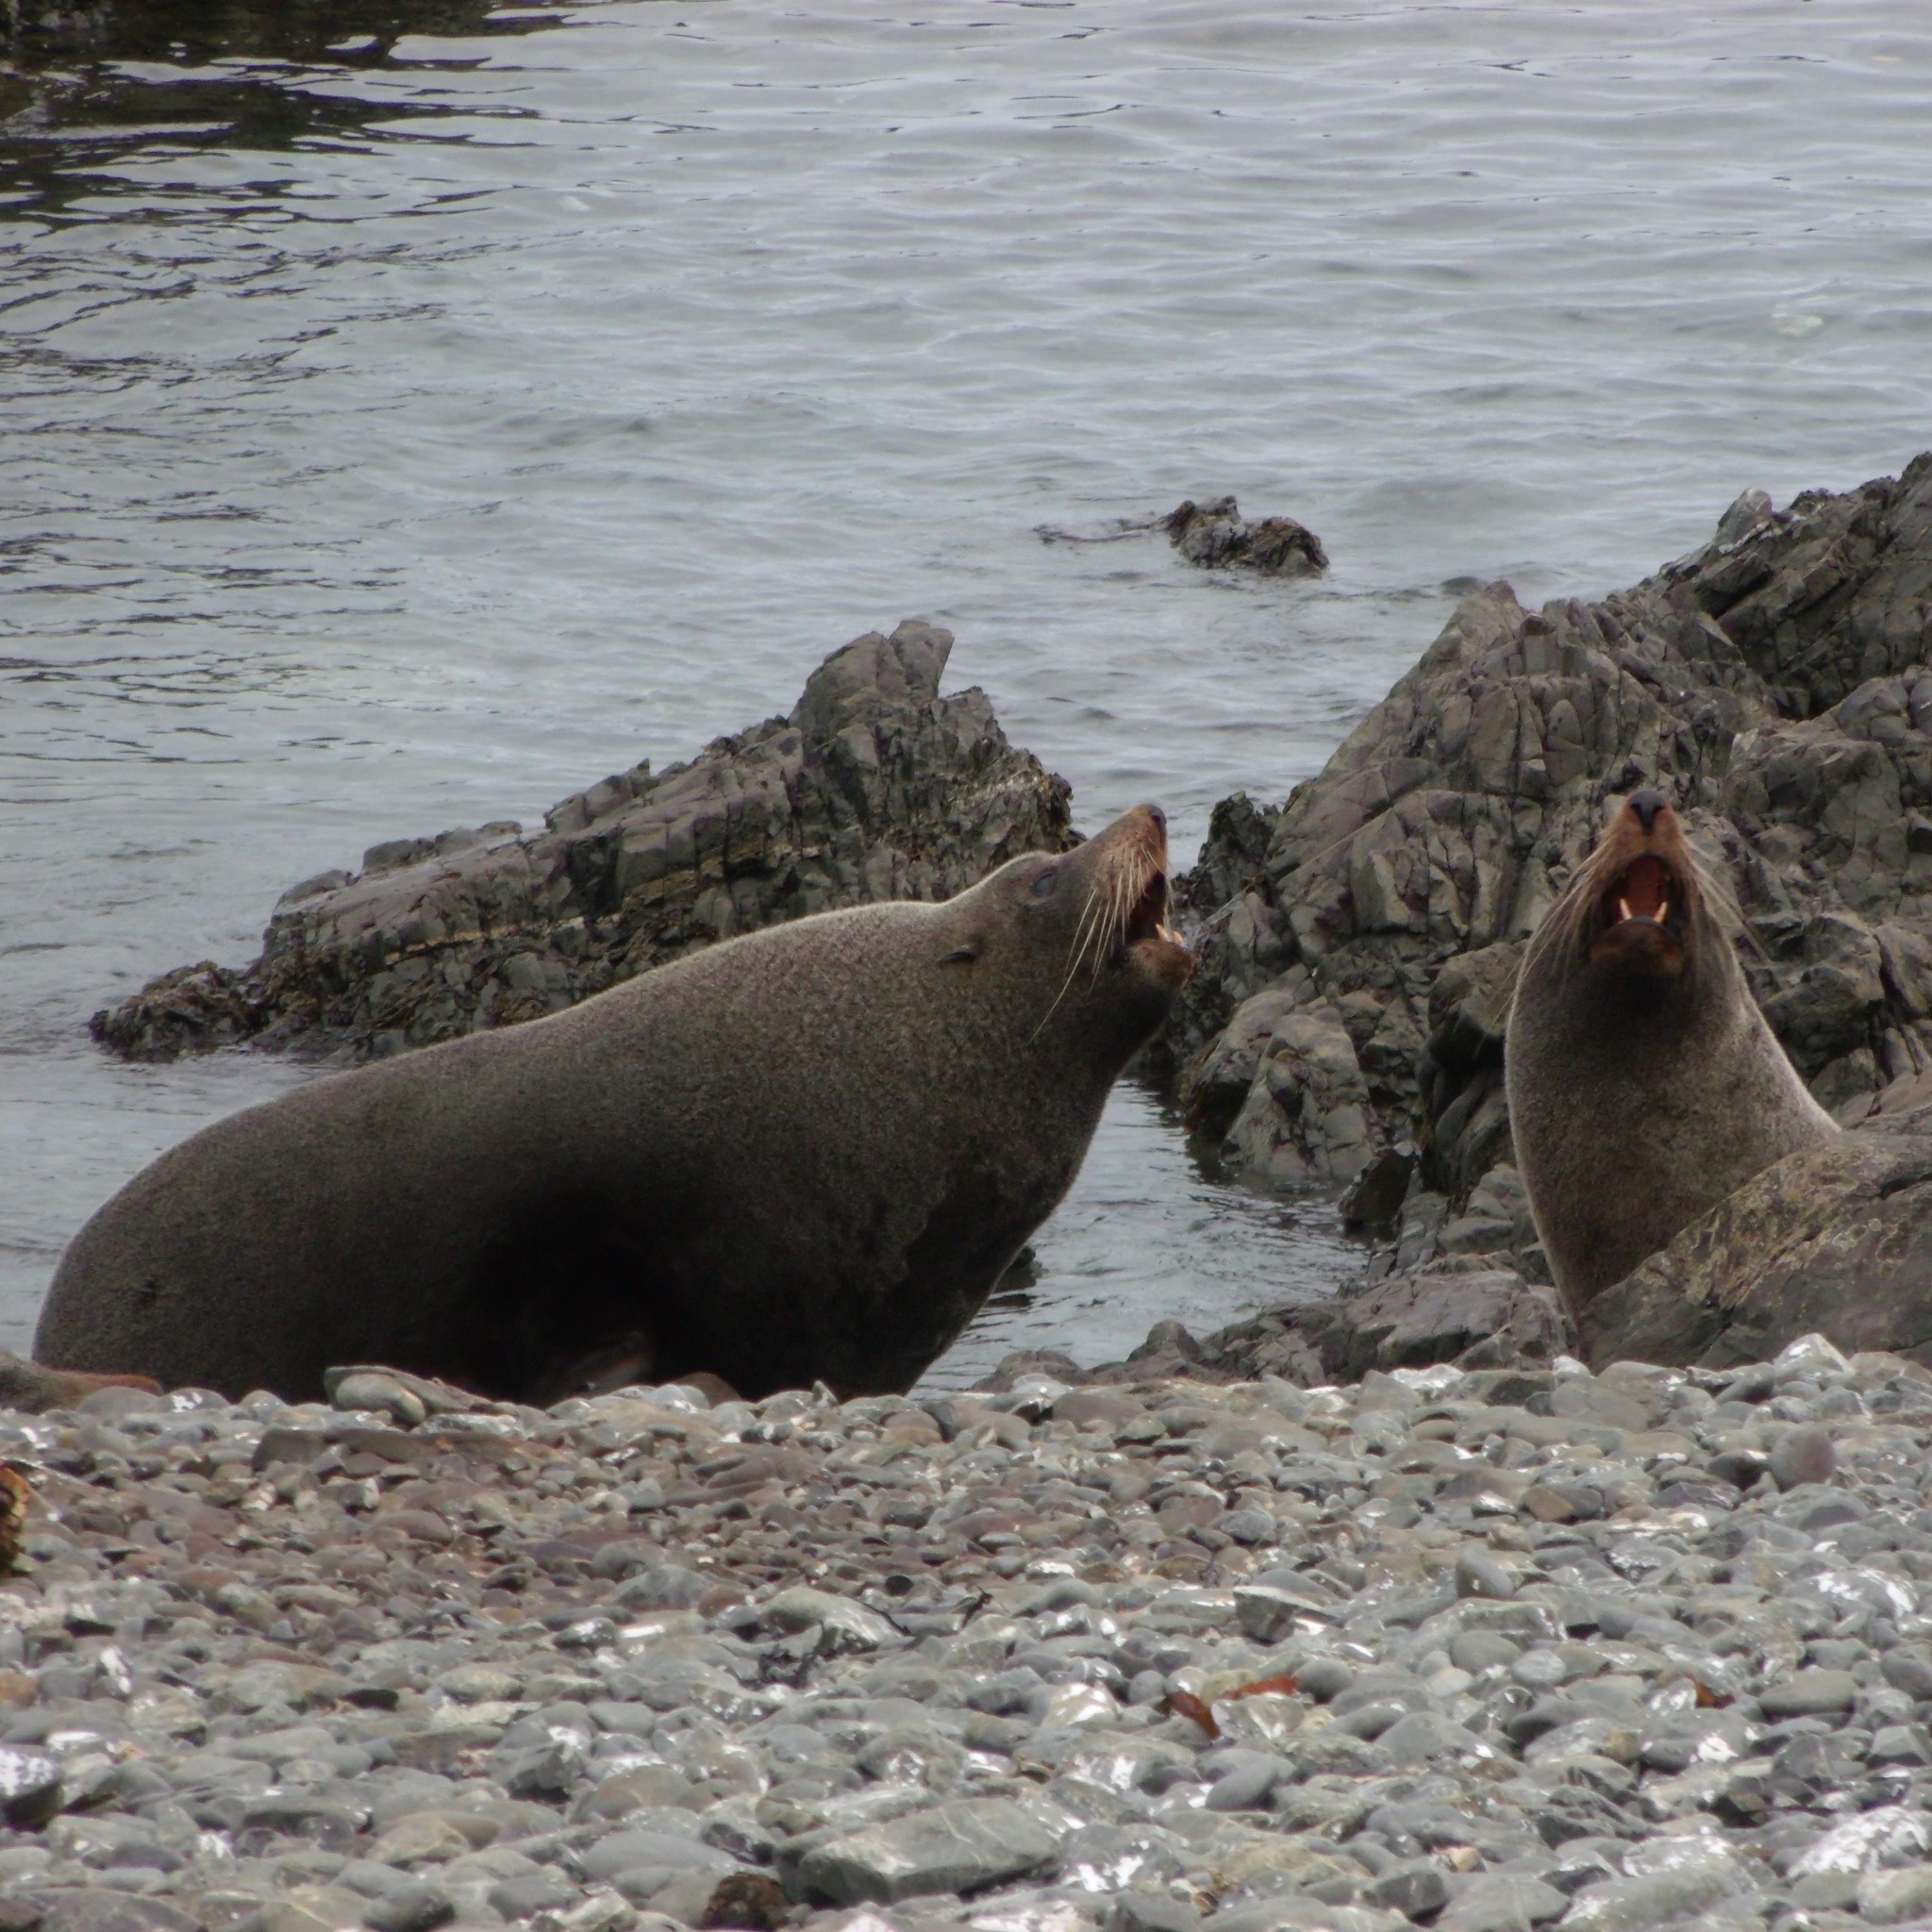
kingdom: Animalia
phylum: Chordata
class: Mammalia
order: Carnivora
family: Otariidae
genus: Arctocephalus
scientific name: Arctocephalus forsteri
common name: New zealand fur seal
